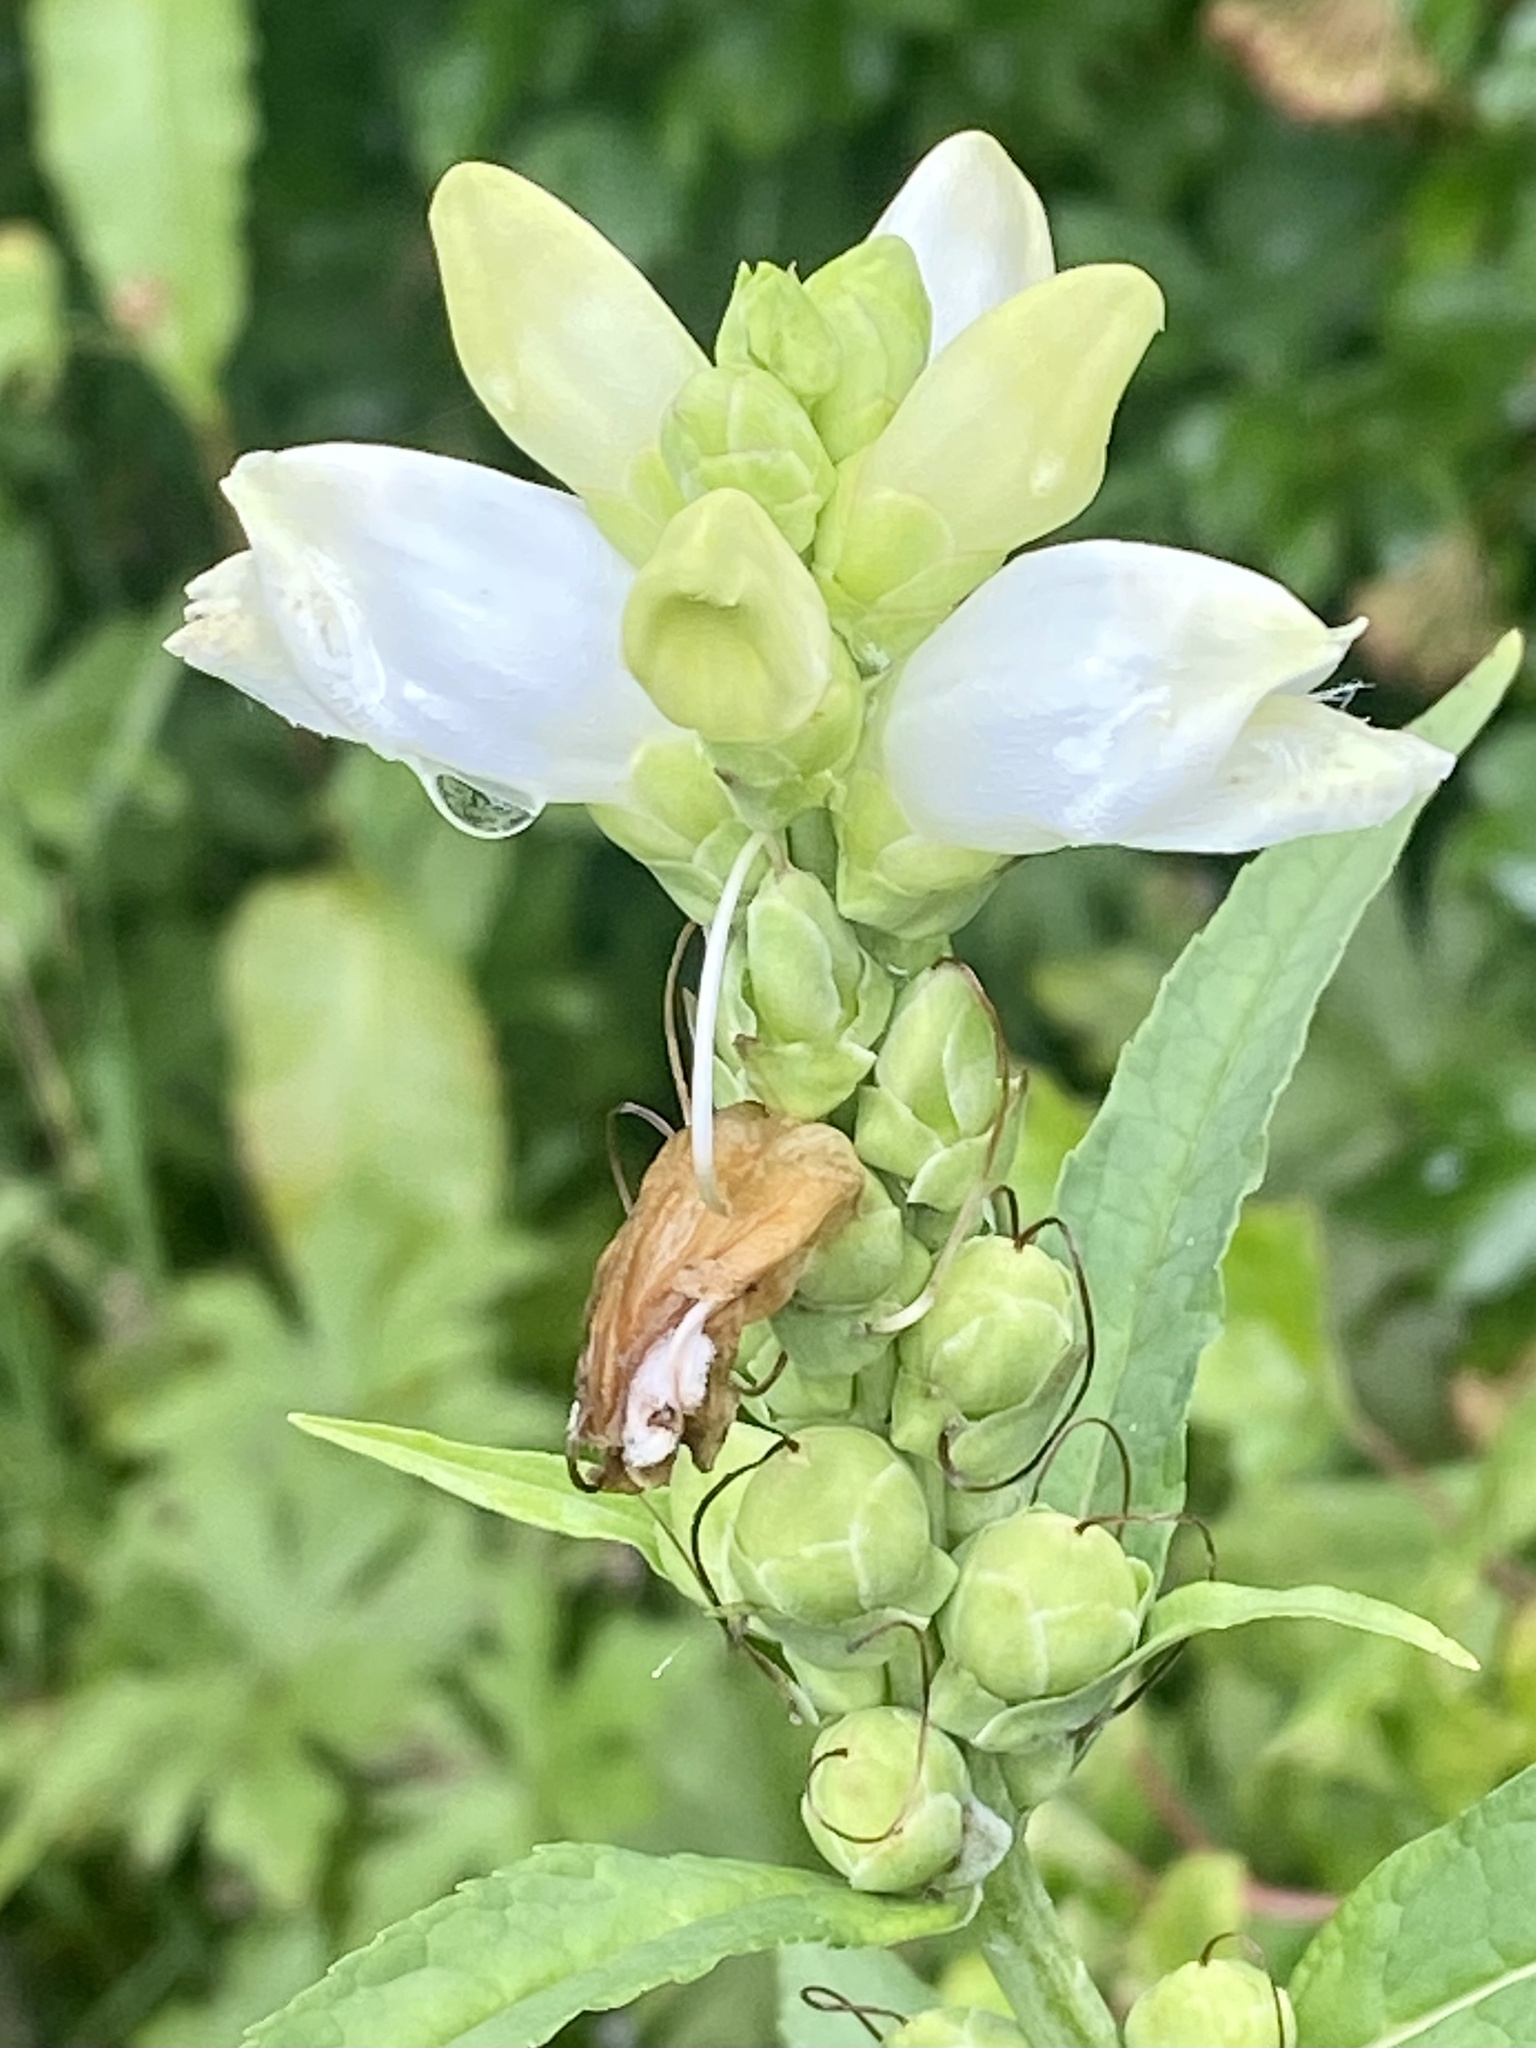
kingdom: Plantae
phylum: Tracheophyta
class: Magnoliopsida
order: Lamiales
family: Plantaginaceae
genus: Chelone
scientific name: Chelone glabra
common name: Snakehead
